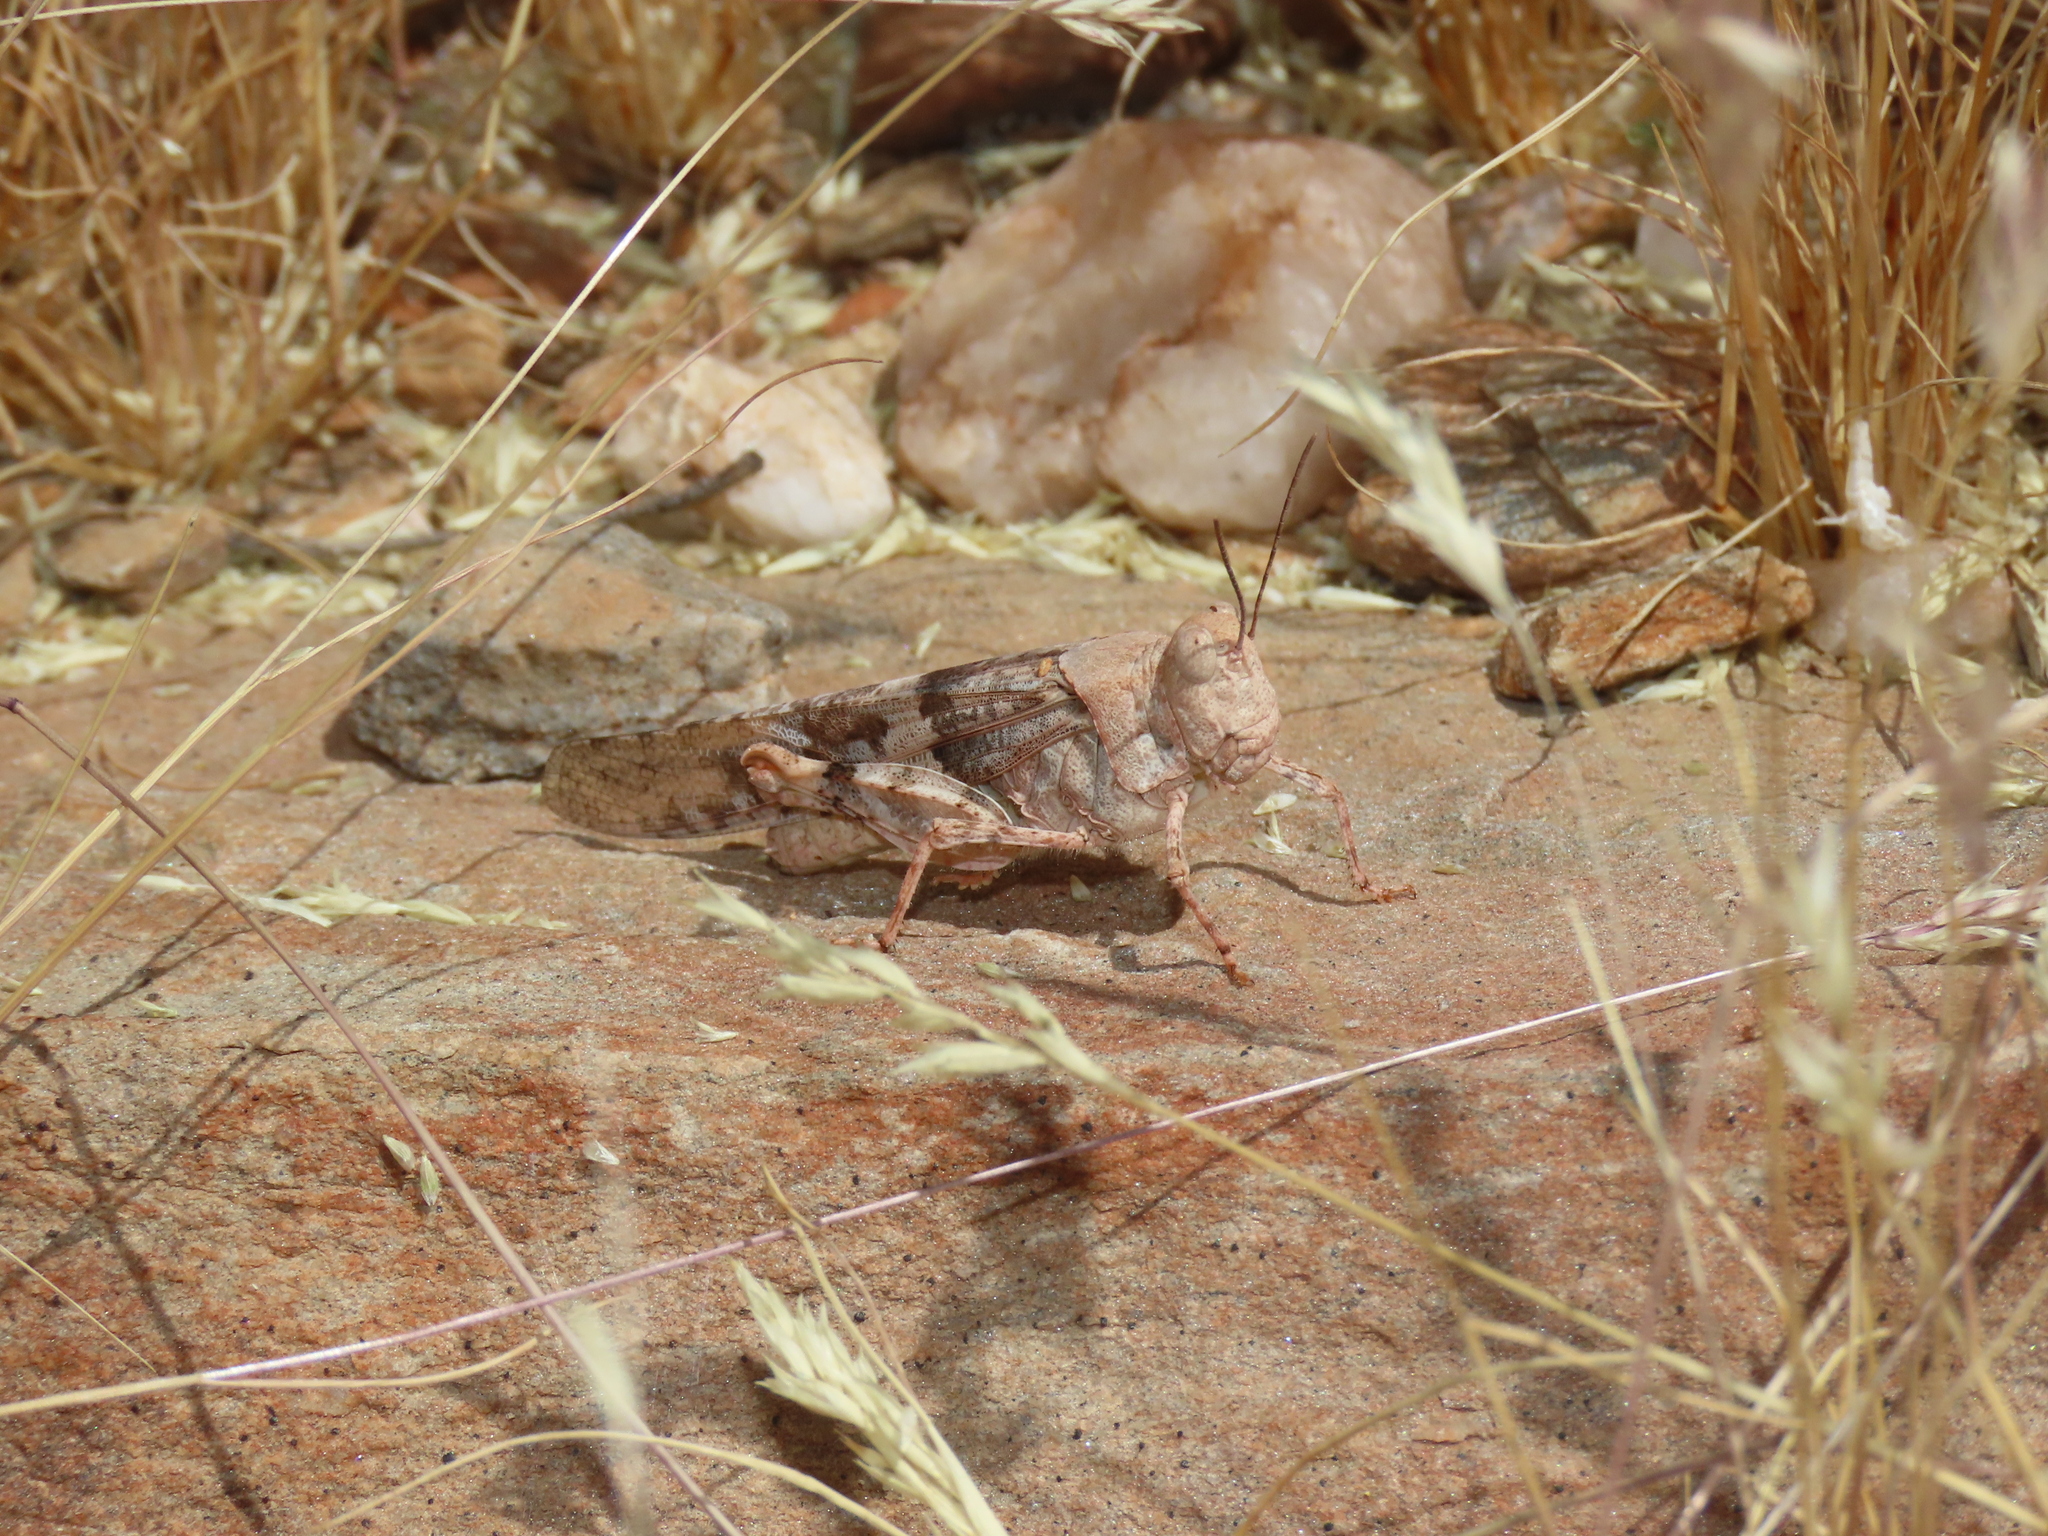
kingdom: Animalia
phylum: Arthropoda
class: Insecta
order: Orthoptera
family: Acrididae
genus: Trimerotropis
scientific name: Trimerotropis pallidipennis
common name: Pallid-winged grasshopper
